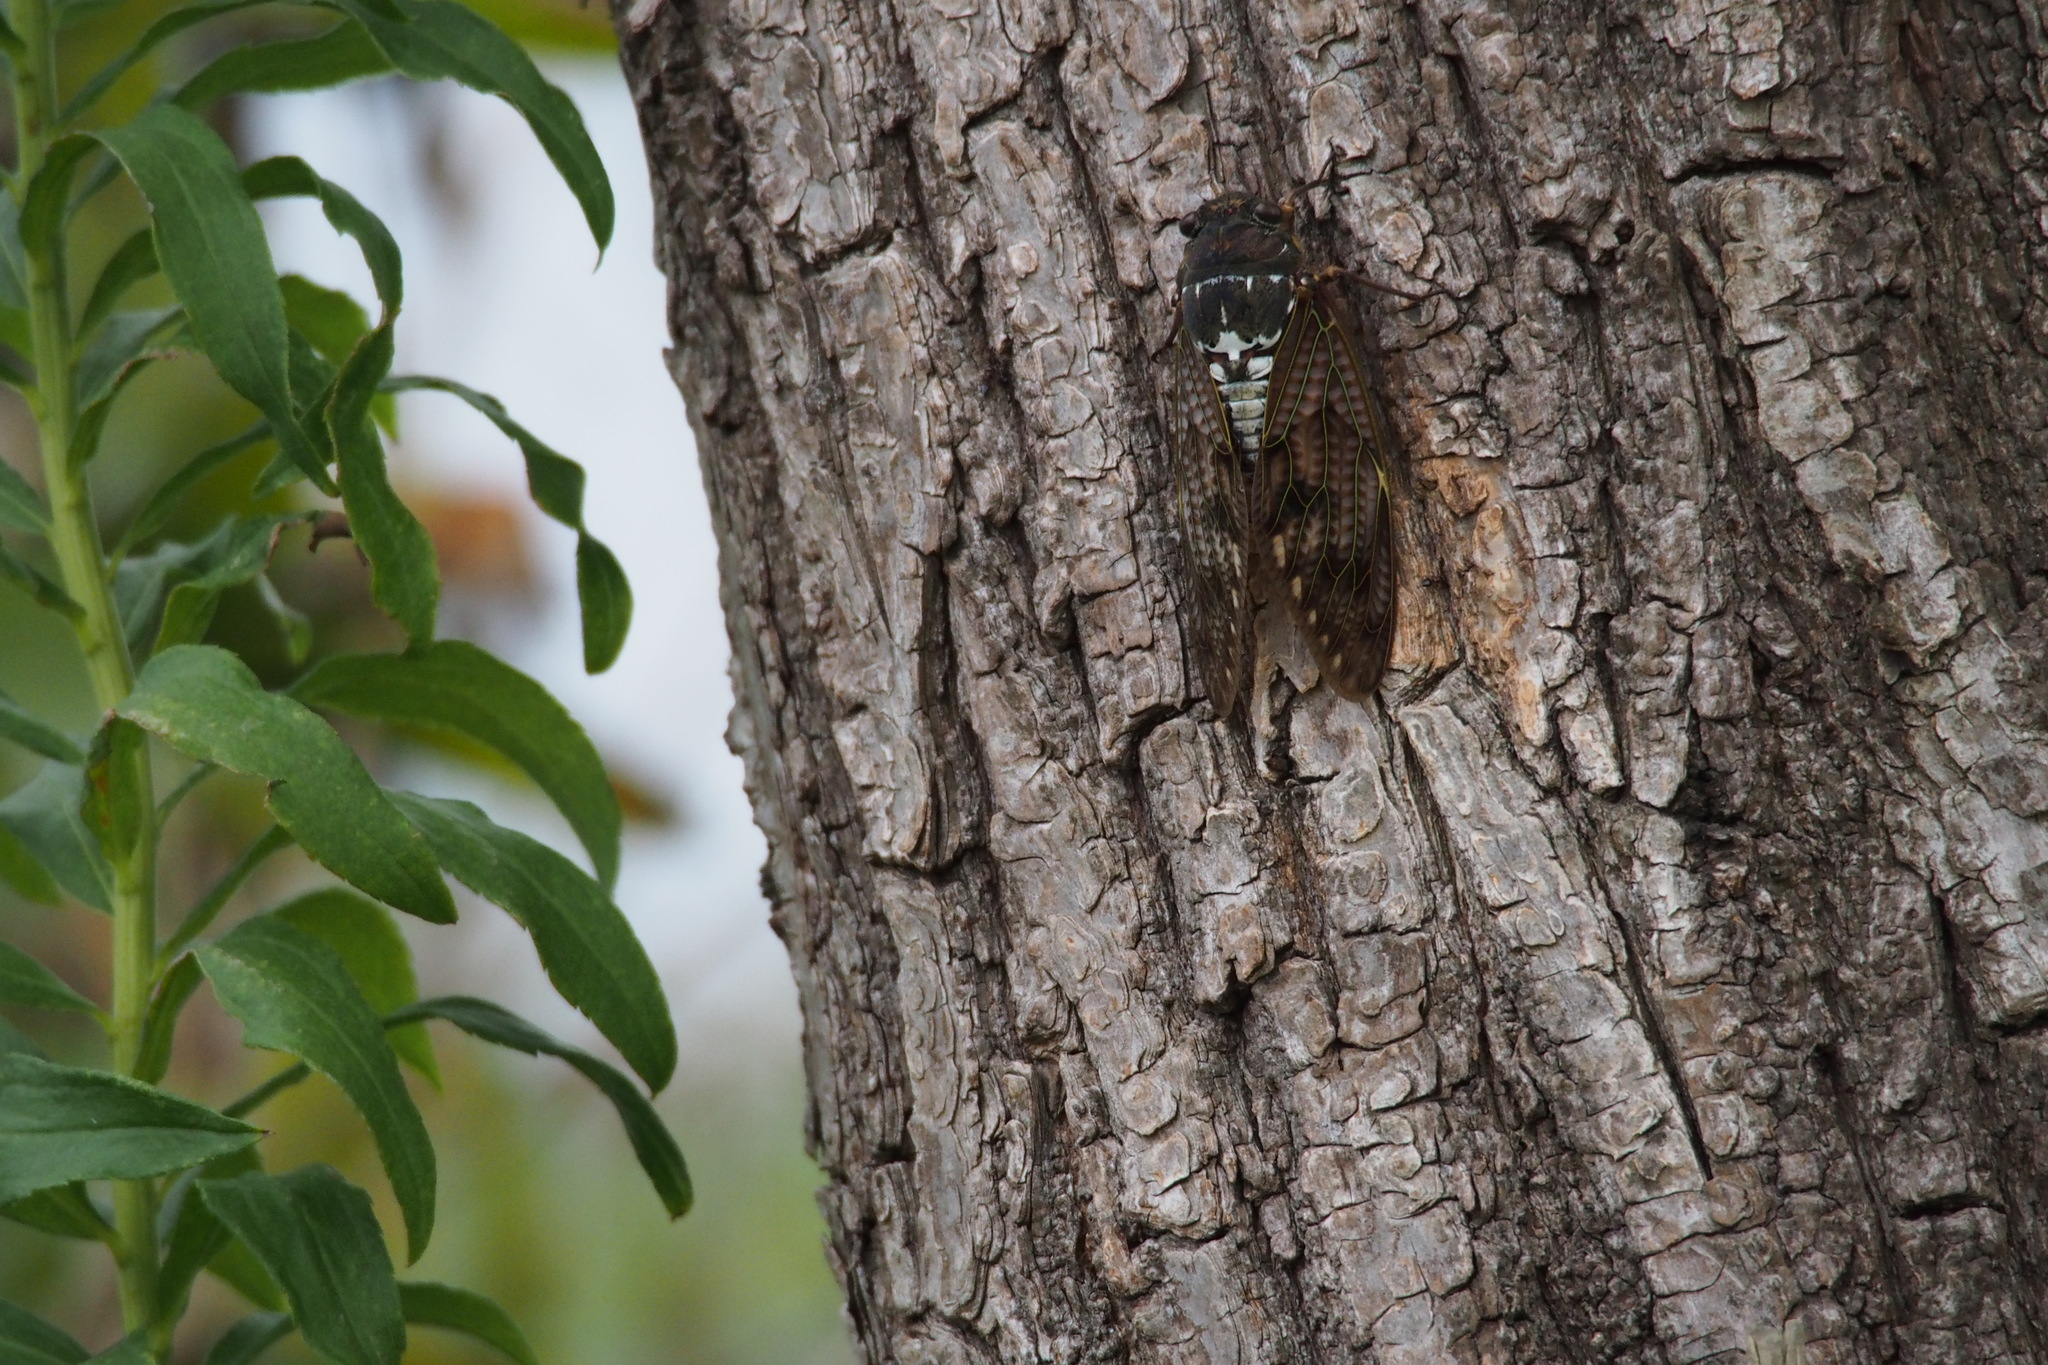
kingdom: Animalia
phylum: Arthropoda
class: Insecta
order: Hemiptera
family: Cicadidae
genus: Graptopsaltria
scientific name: Graptopsaltria nigrofuscata
